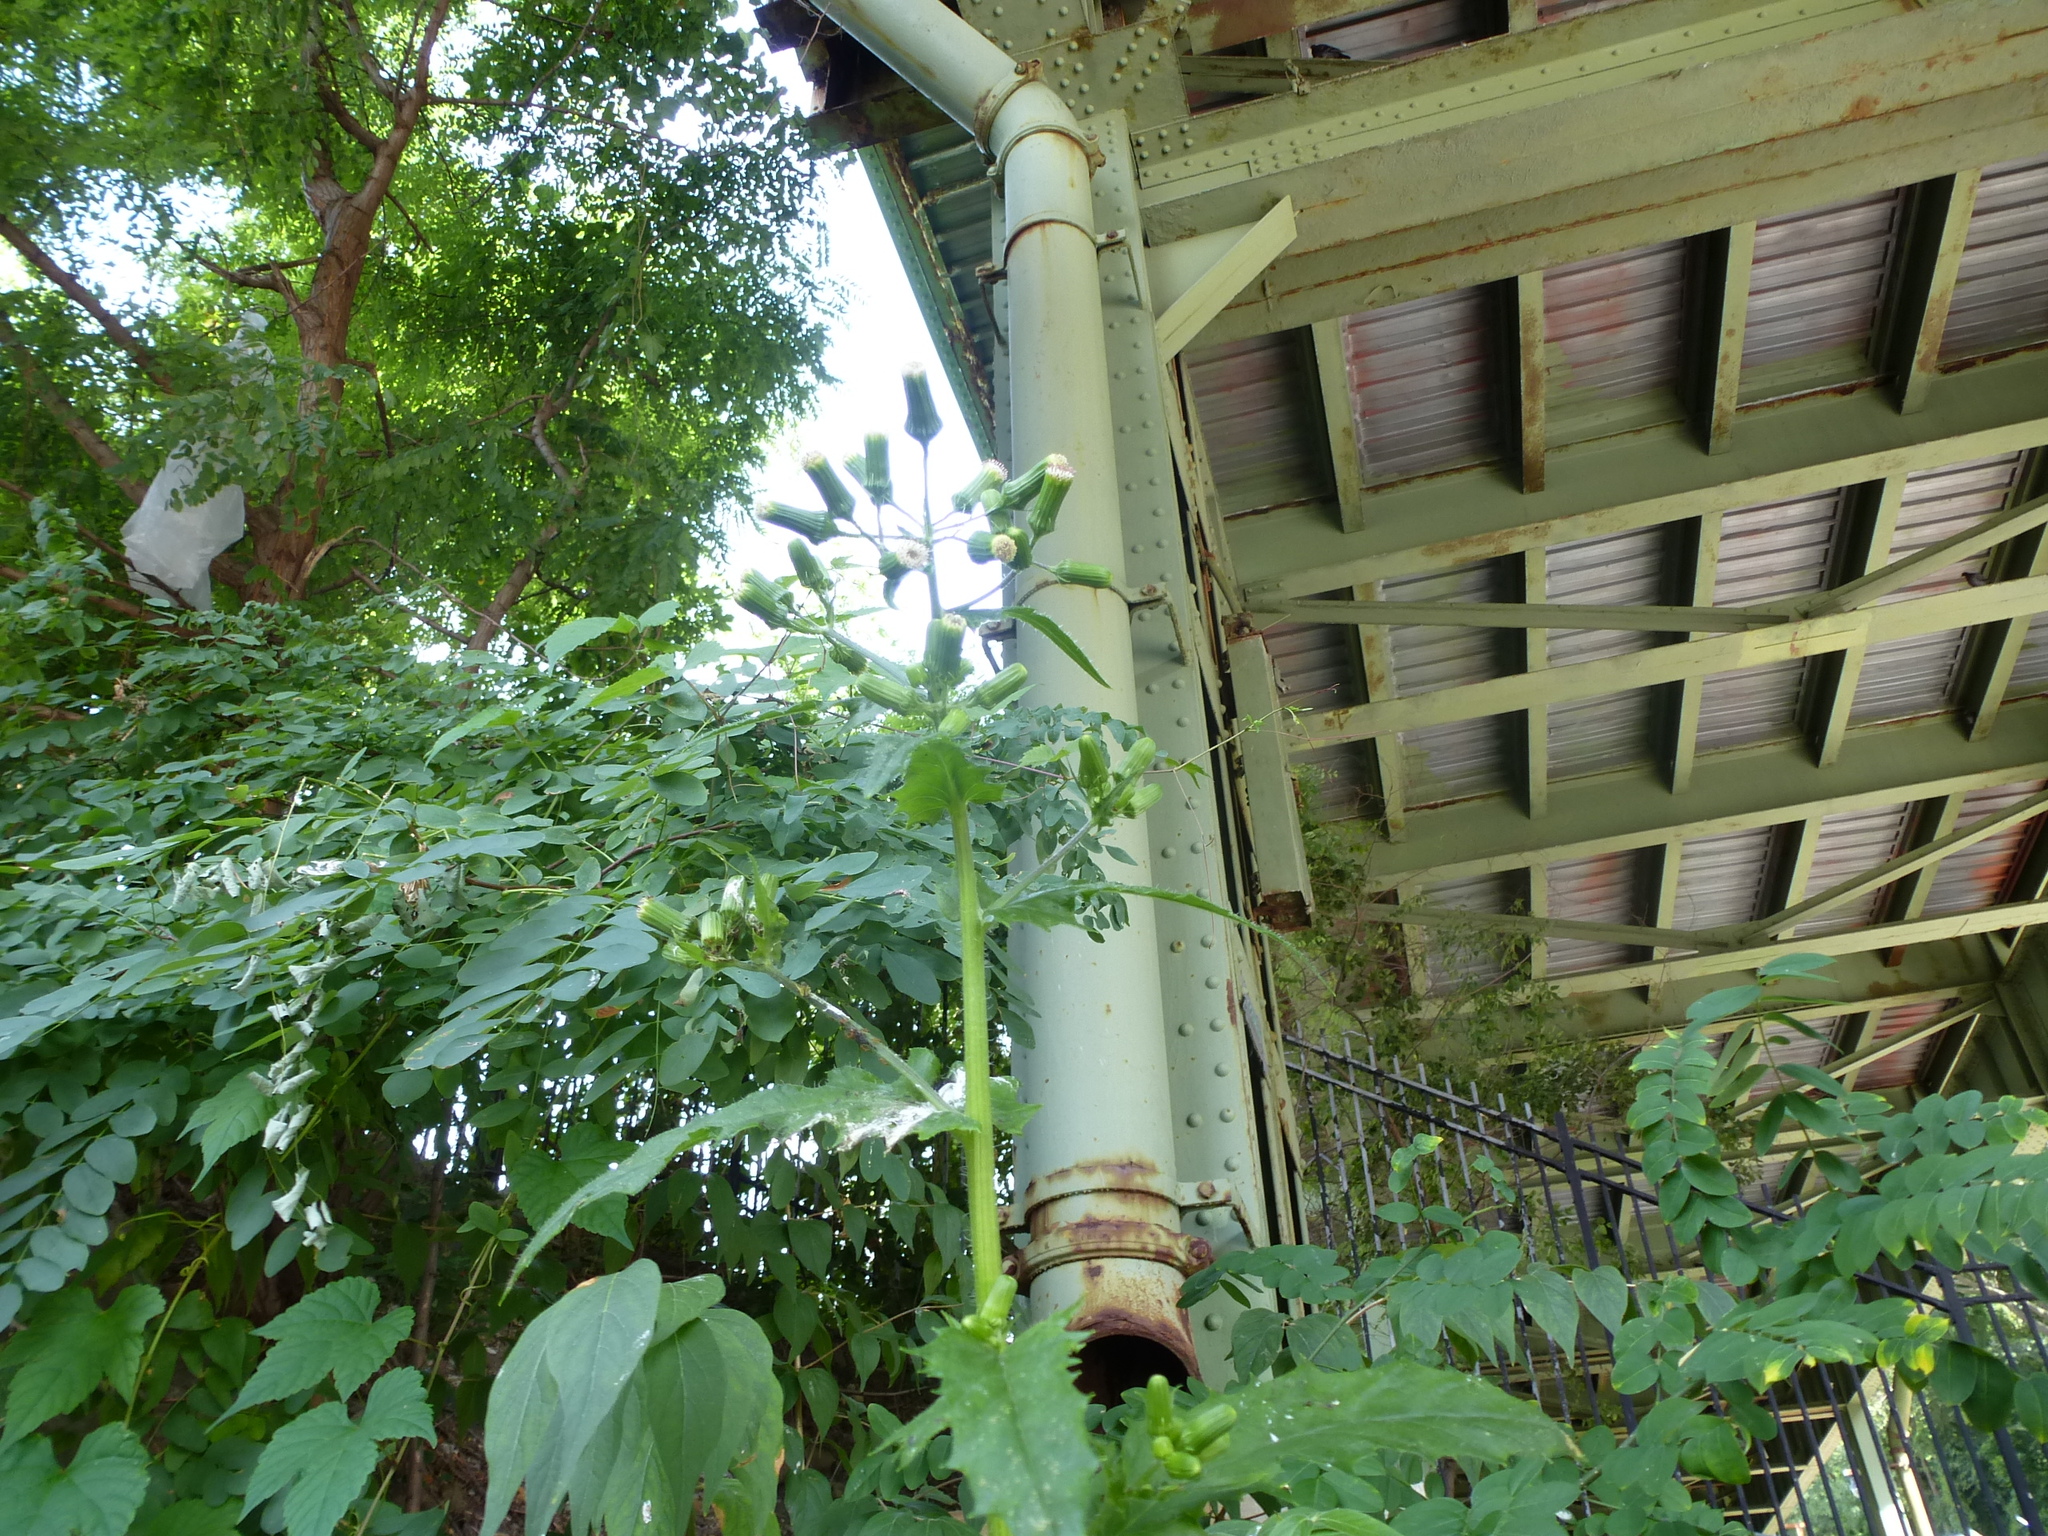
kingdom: Plantae
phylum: Tracheophyta
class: Magnoliopsida
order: Asterales
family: Asteraceae
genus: Erechtites
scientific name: Erechtites hieraciifolius
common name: American burnweed
